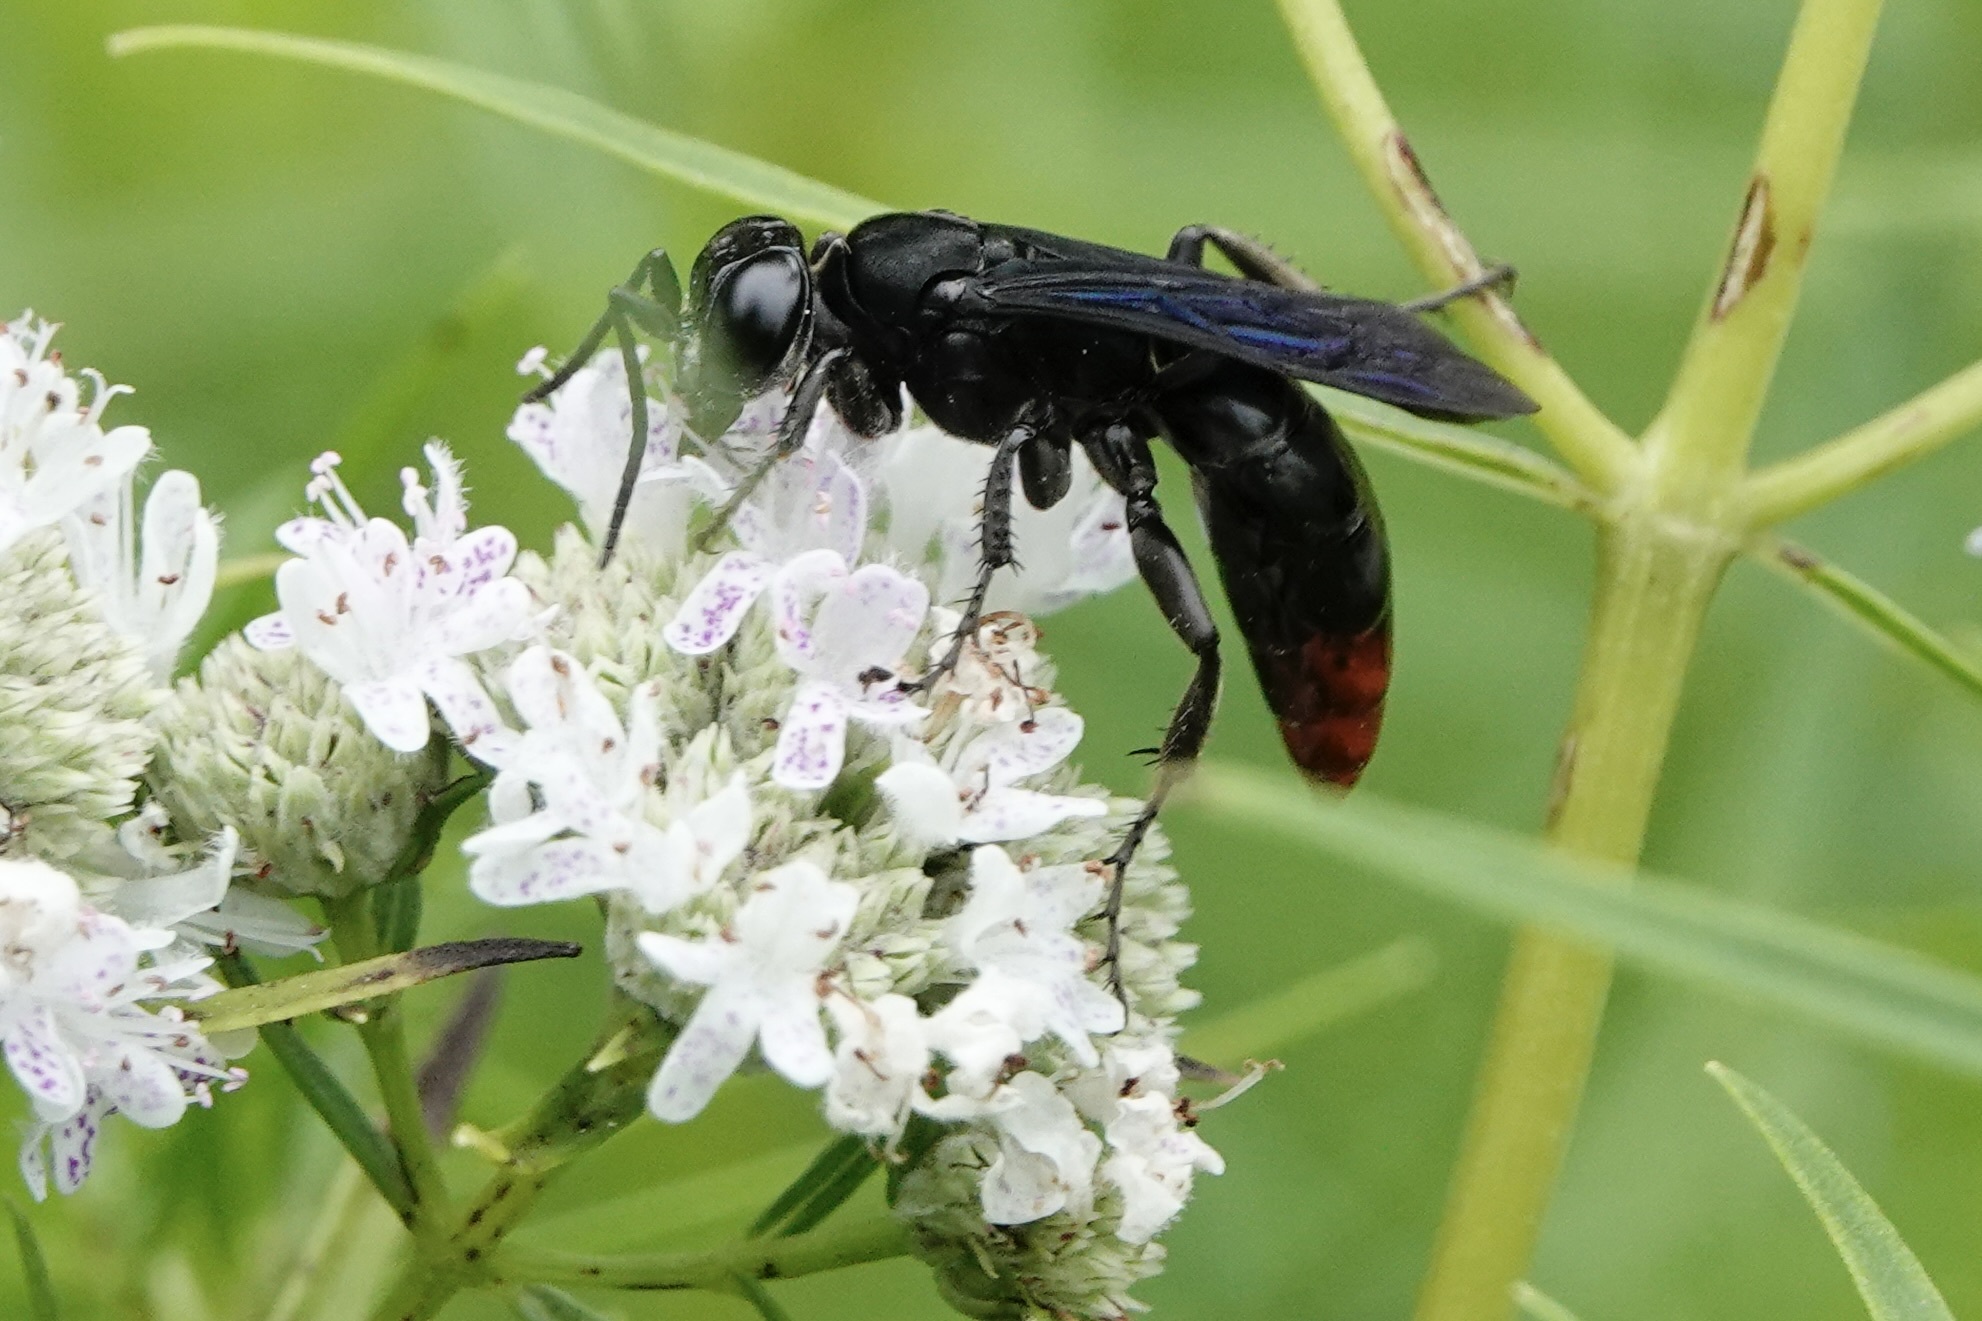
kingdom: Animalia
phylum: Arthropoda
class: Insecta
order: Hymenoptera
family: Crabronidae
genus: Larra
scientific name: Larra analis
